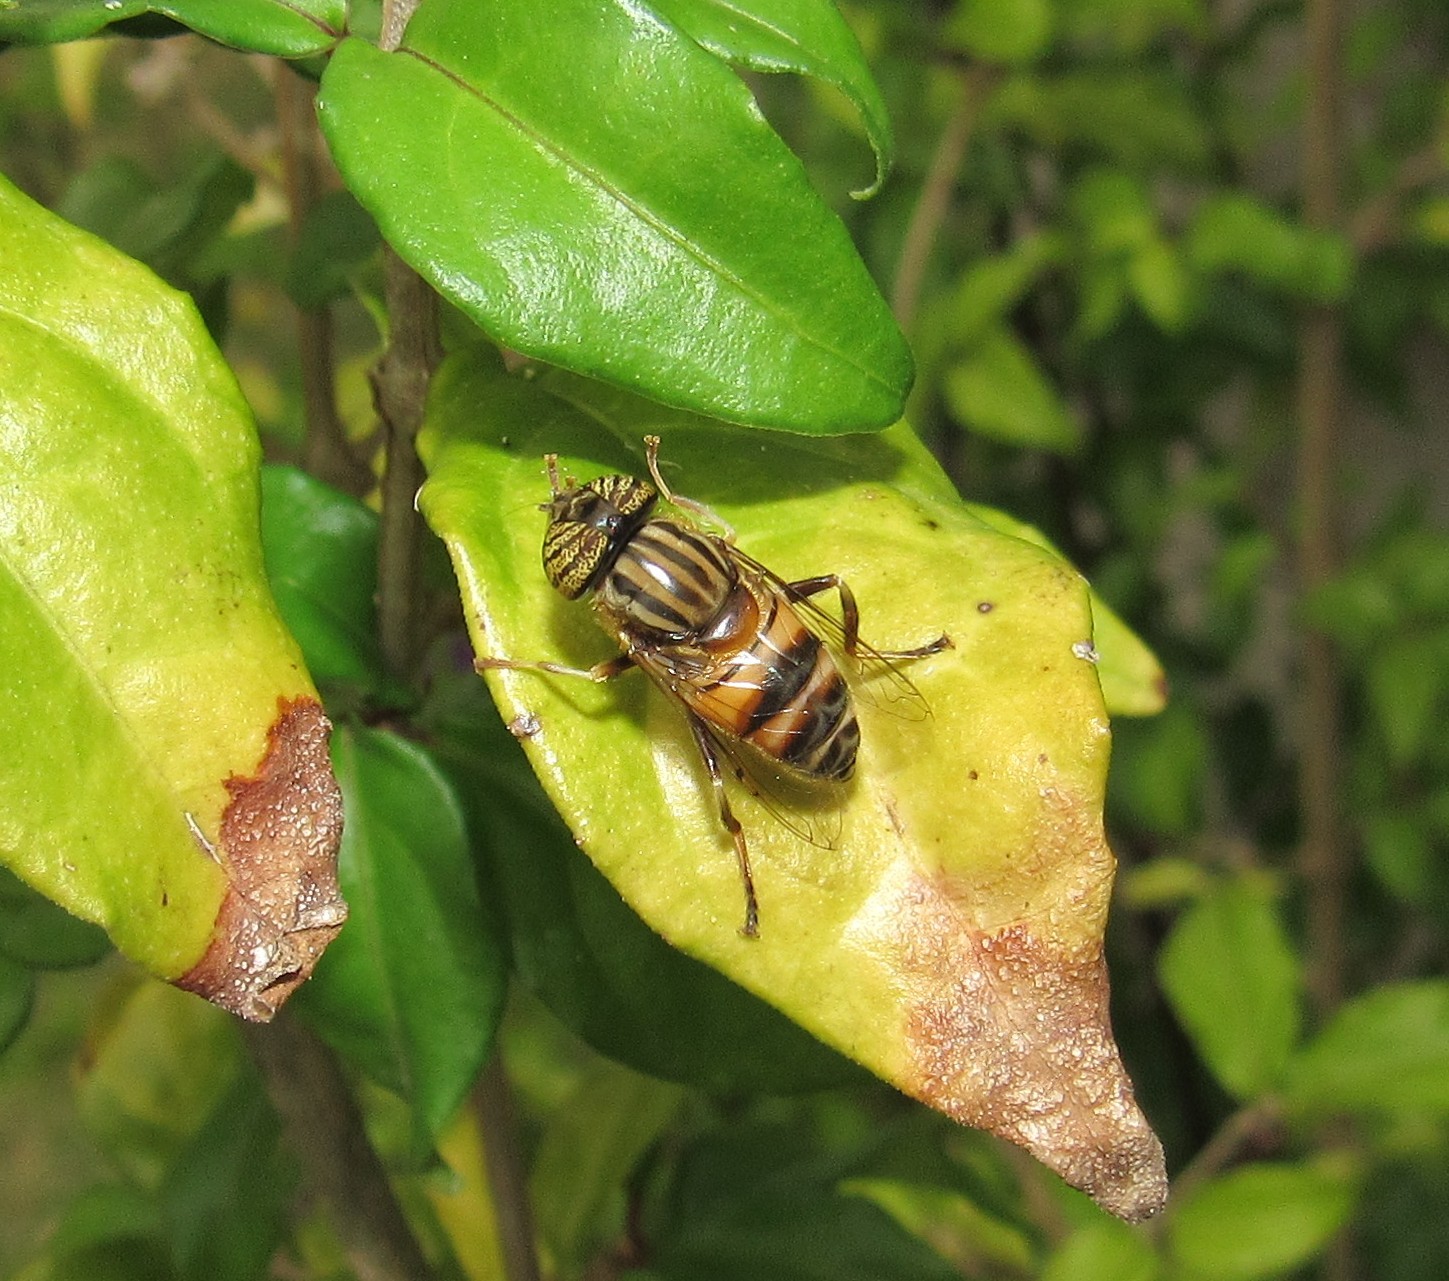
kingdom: Animalia
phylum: Arthropoda
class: Insecta
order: Diptera
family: Syrphidae
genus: Eristalinus
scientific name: Eristalinus taeniops
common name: Syrphid fly
